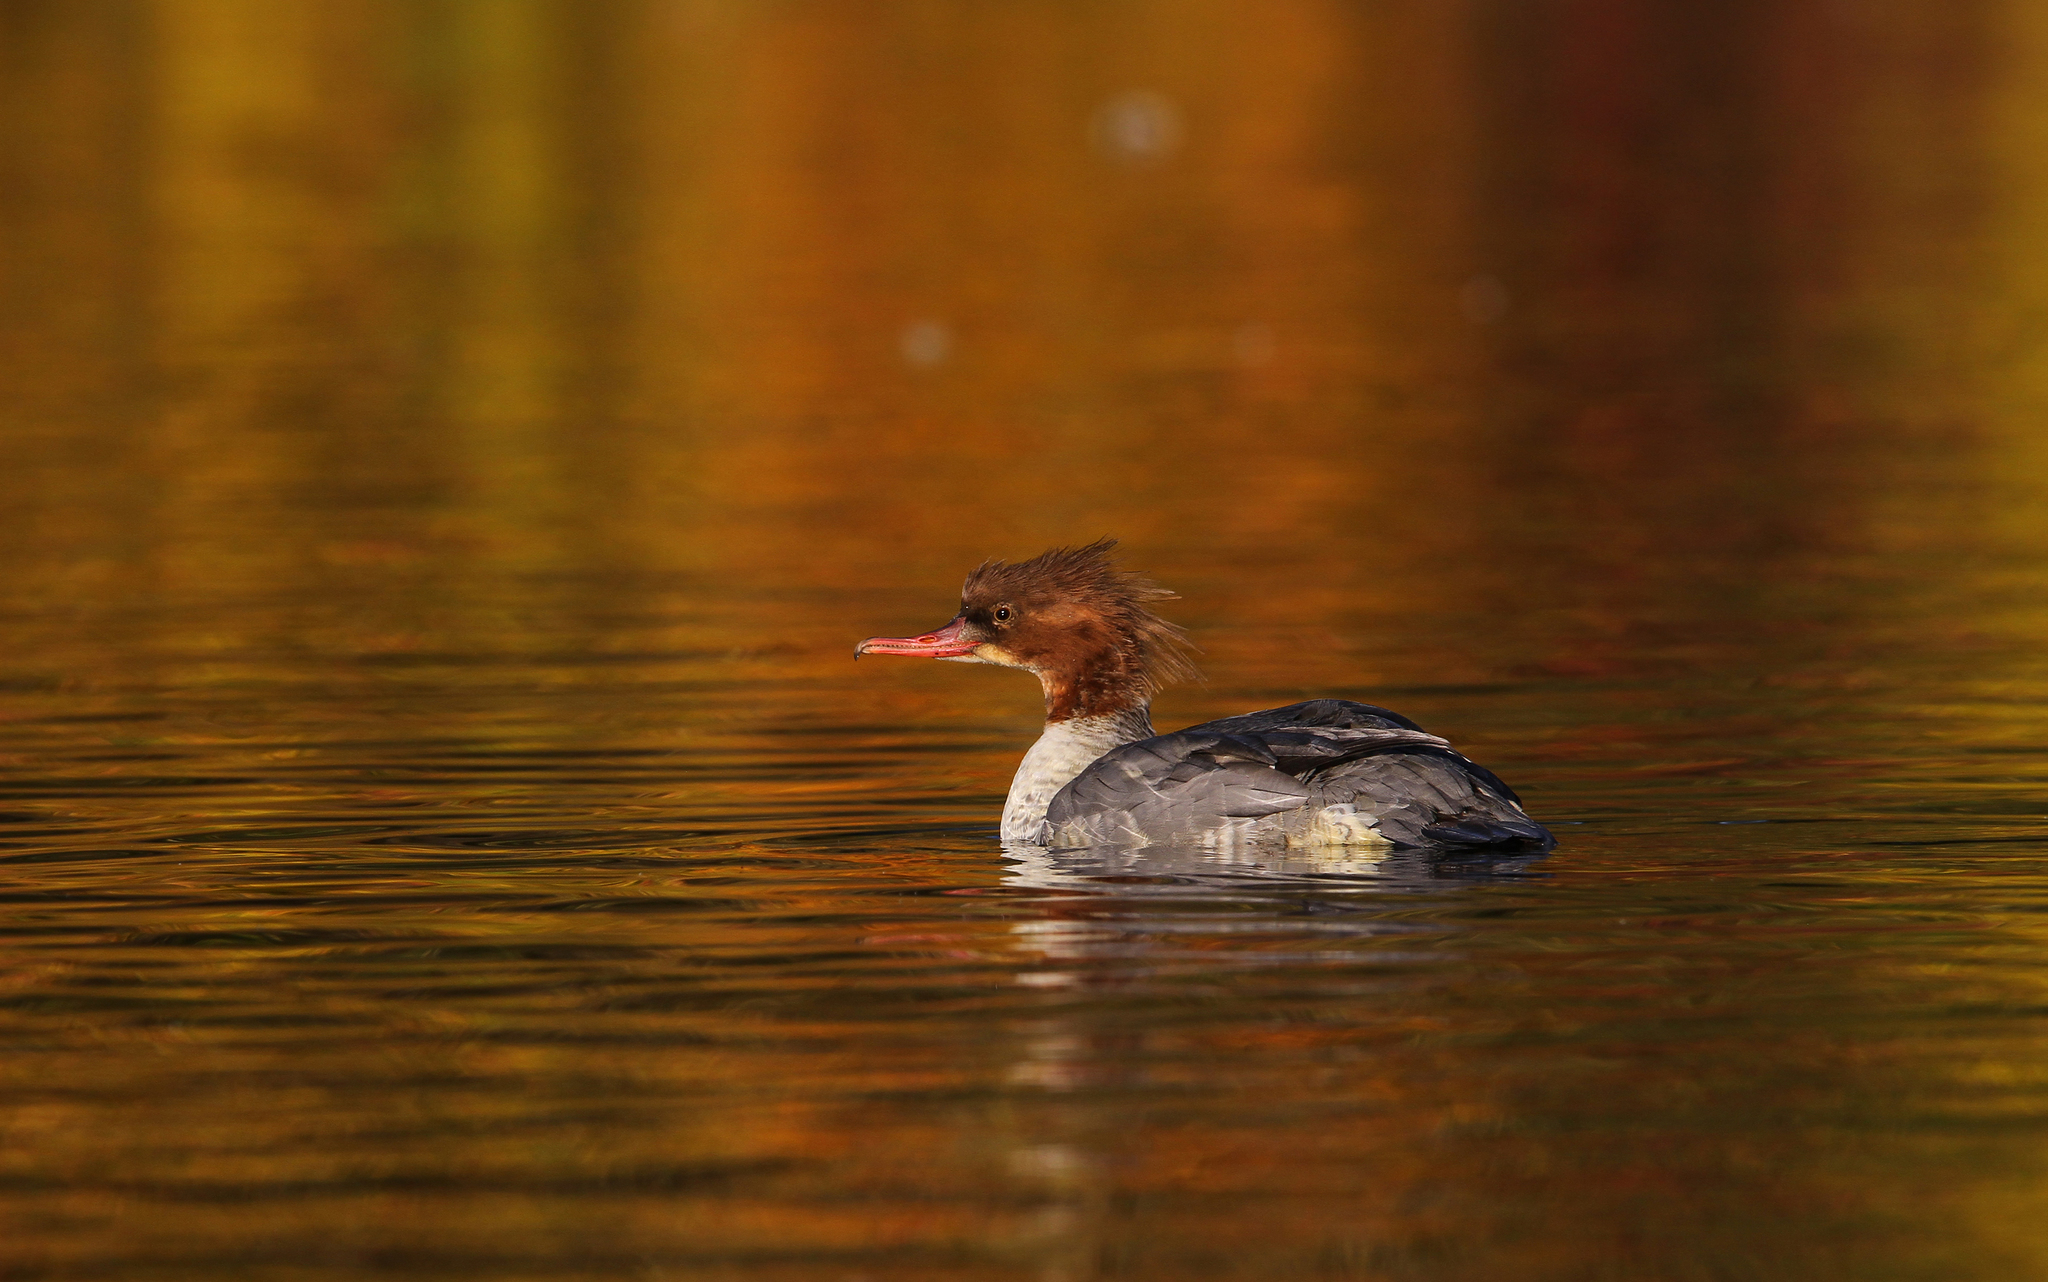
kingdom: Animalia
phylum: Chordata
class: Aves
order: Anseriformes
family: Anatidae
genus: Mergus
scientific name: Mergus merganser
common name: Common merganser
